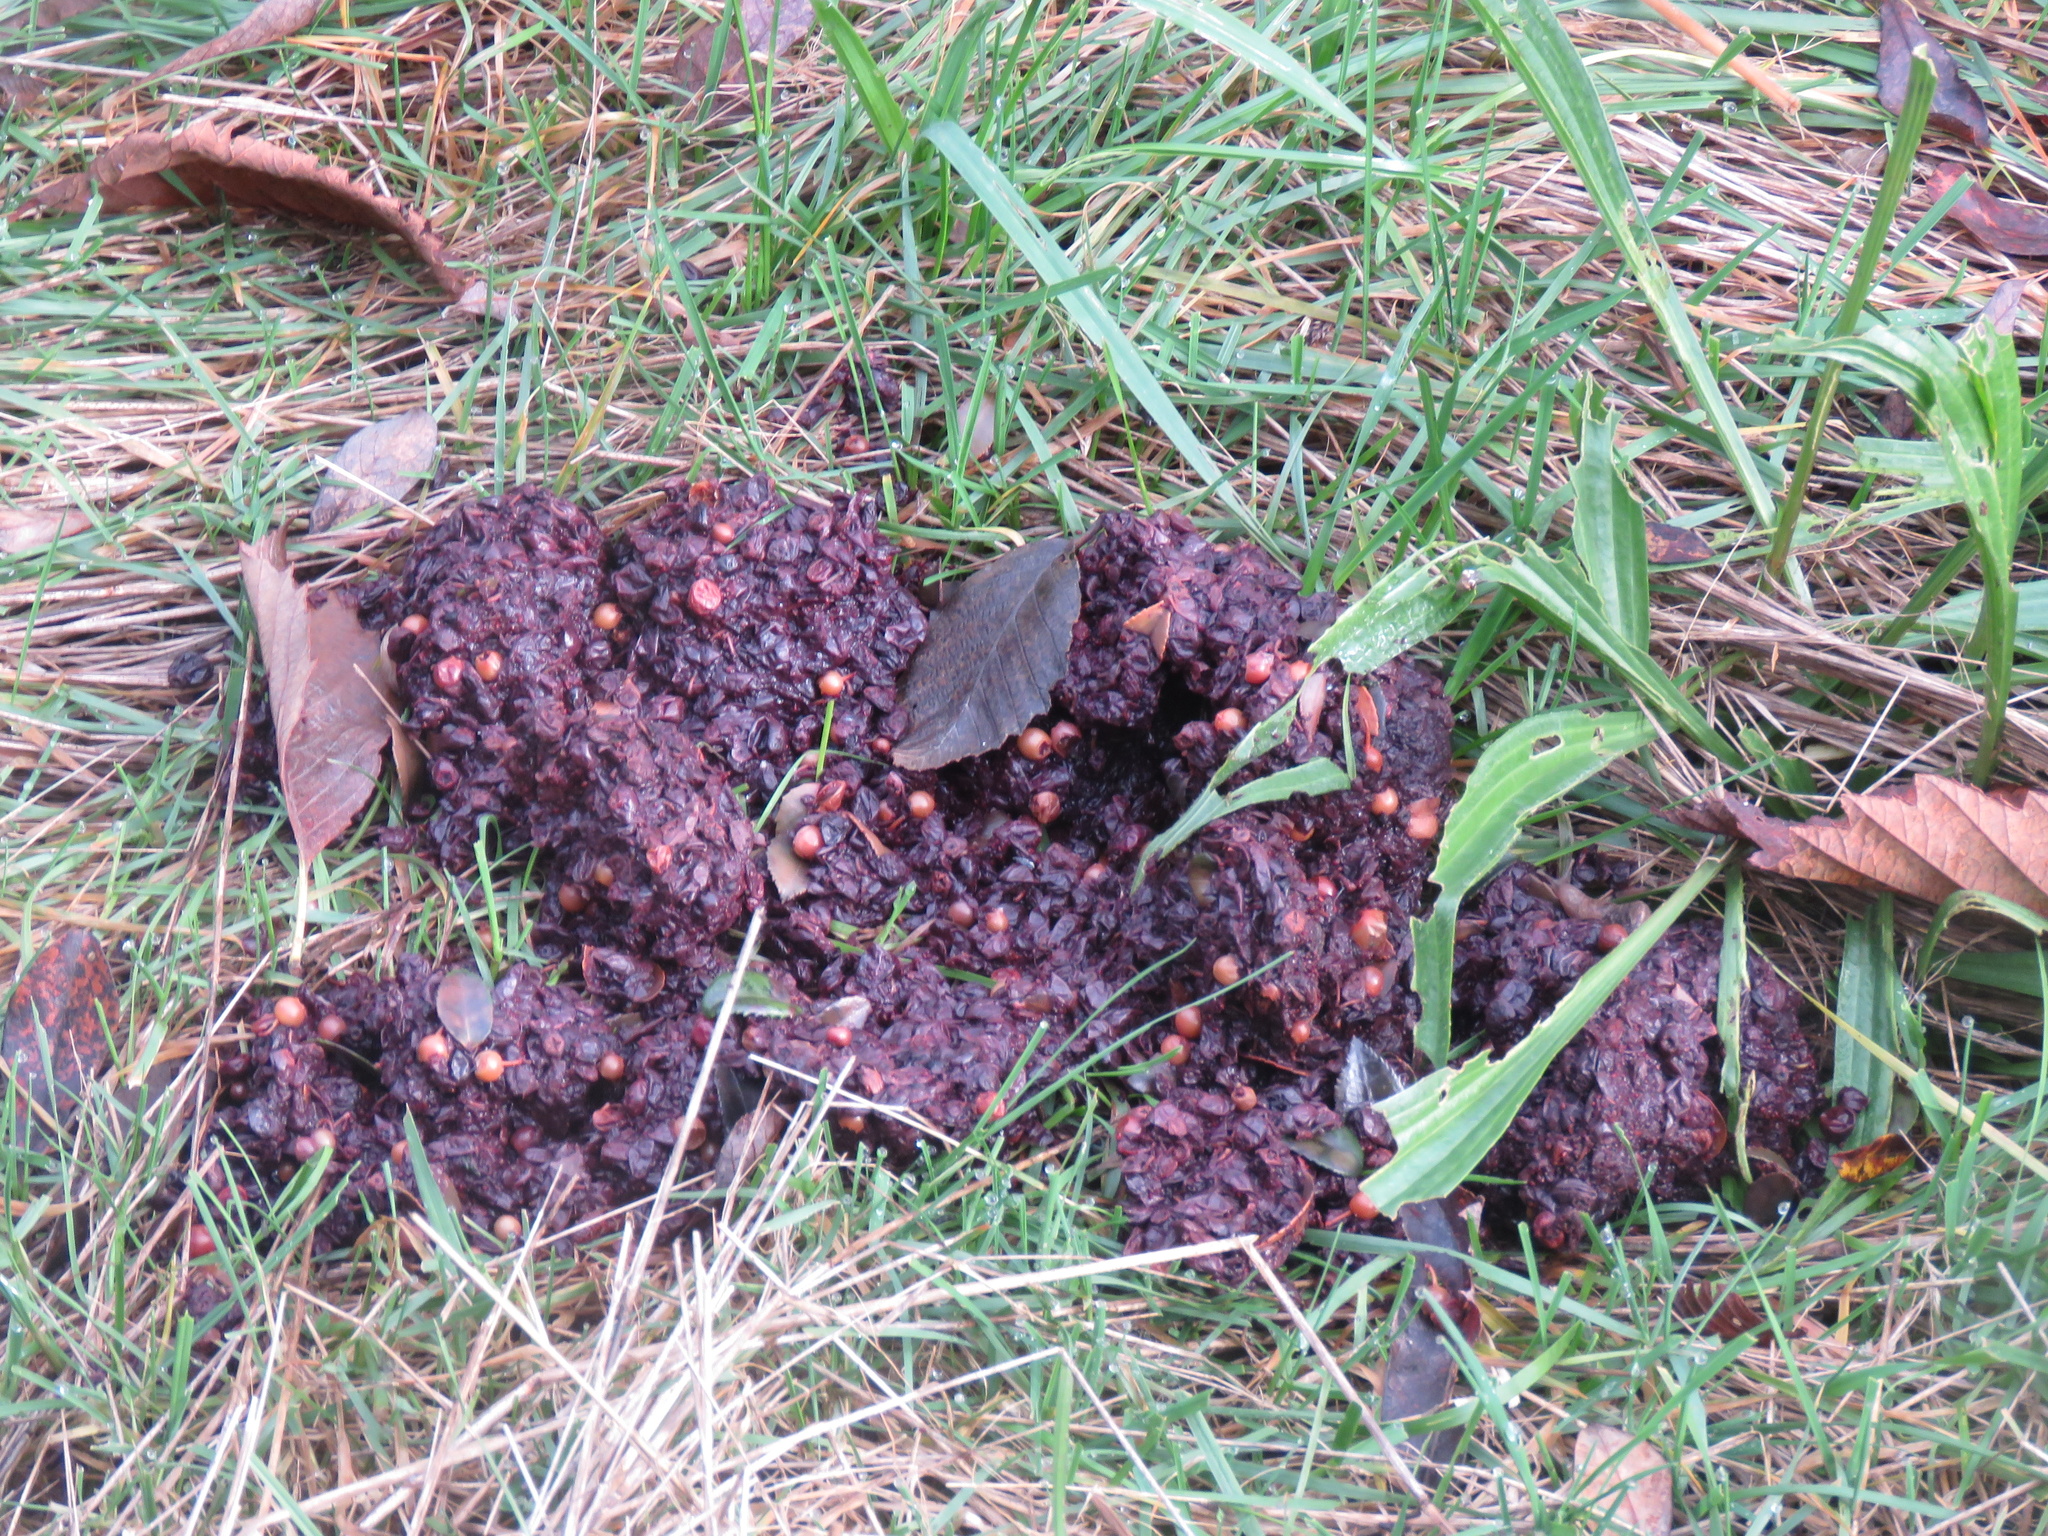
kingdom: Animalia
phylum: Chordata
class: Mammalia
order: Carnivora
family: Ursidae
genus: Ursus
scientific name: Ursus americanus
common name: American black bear
